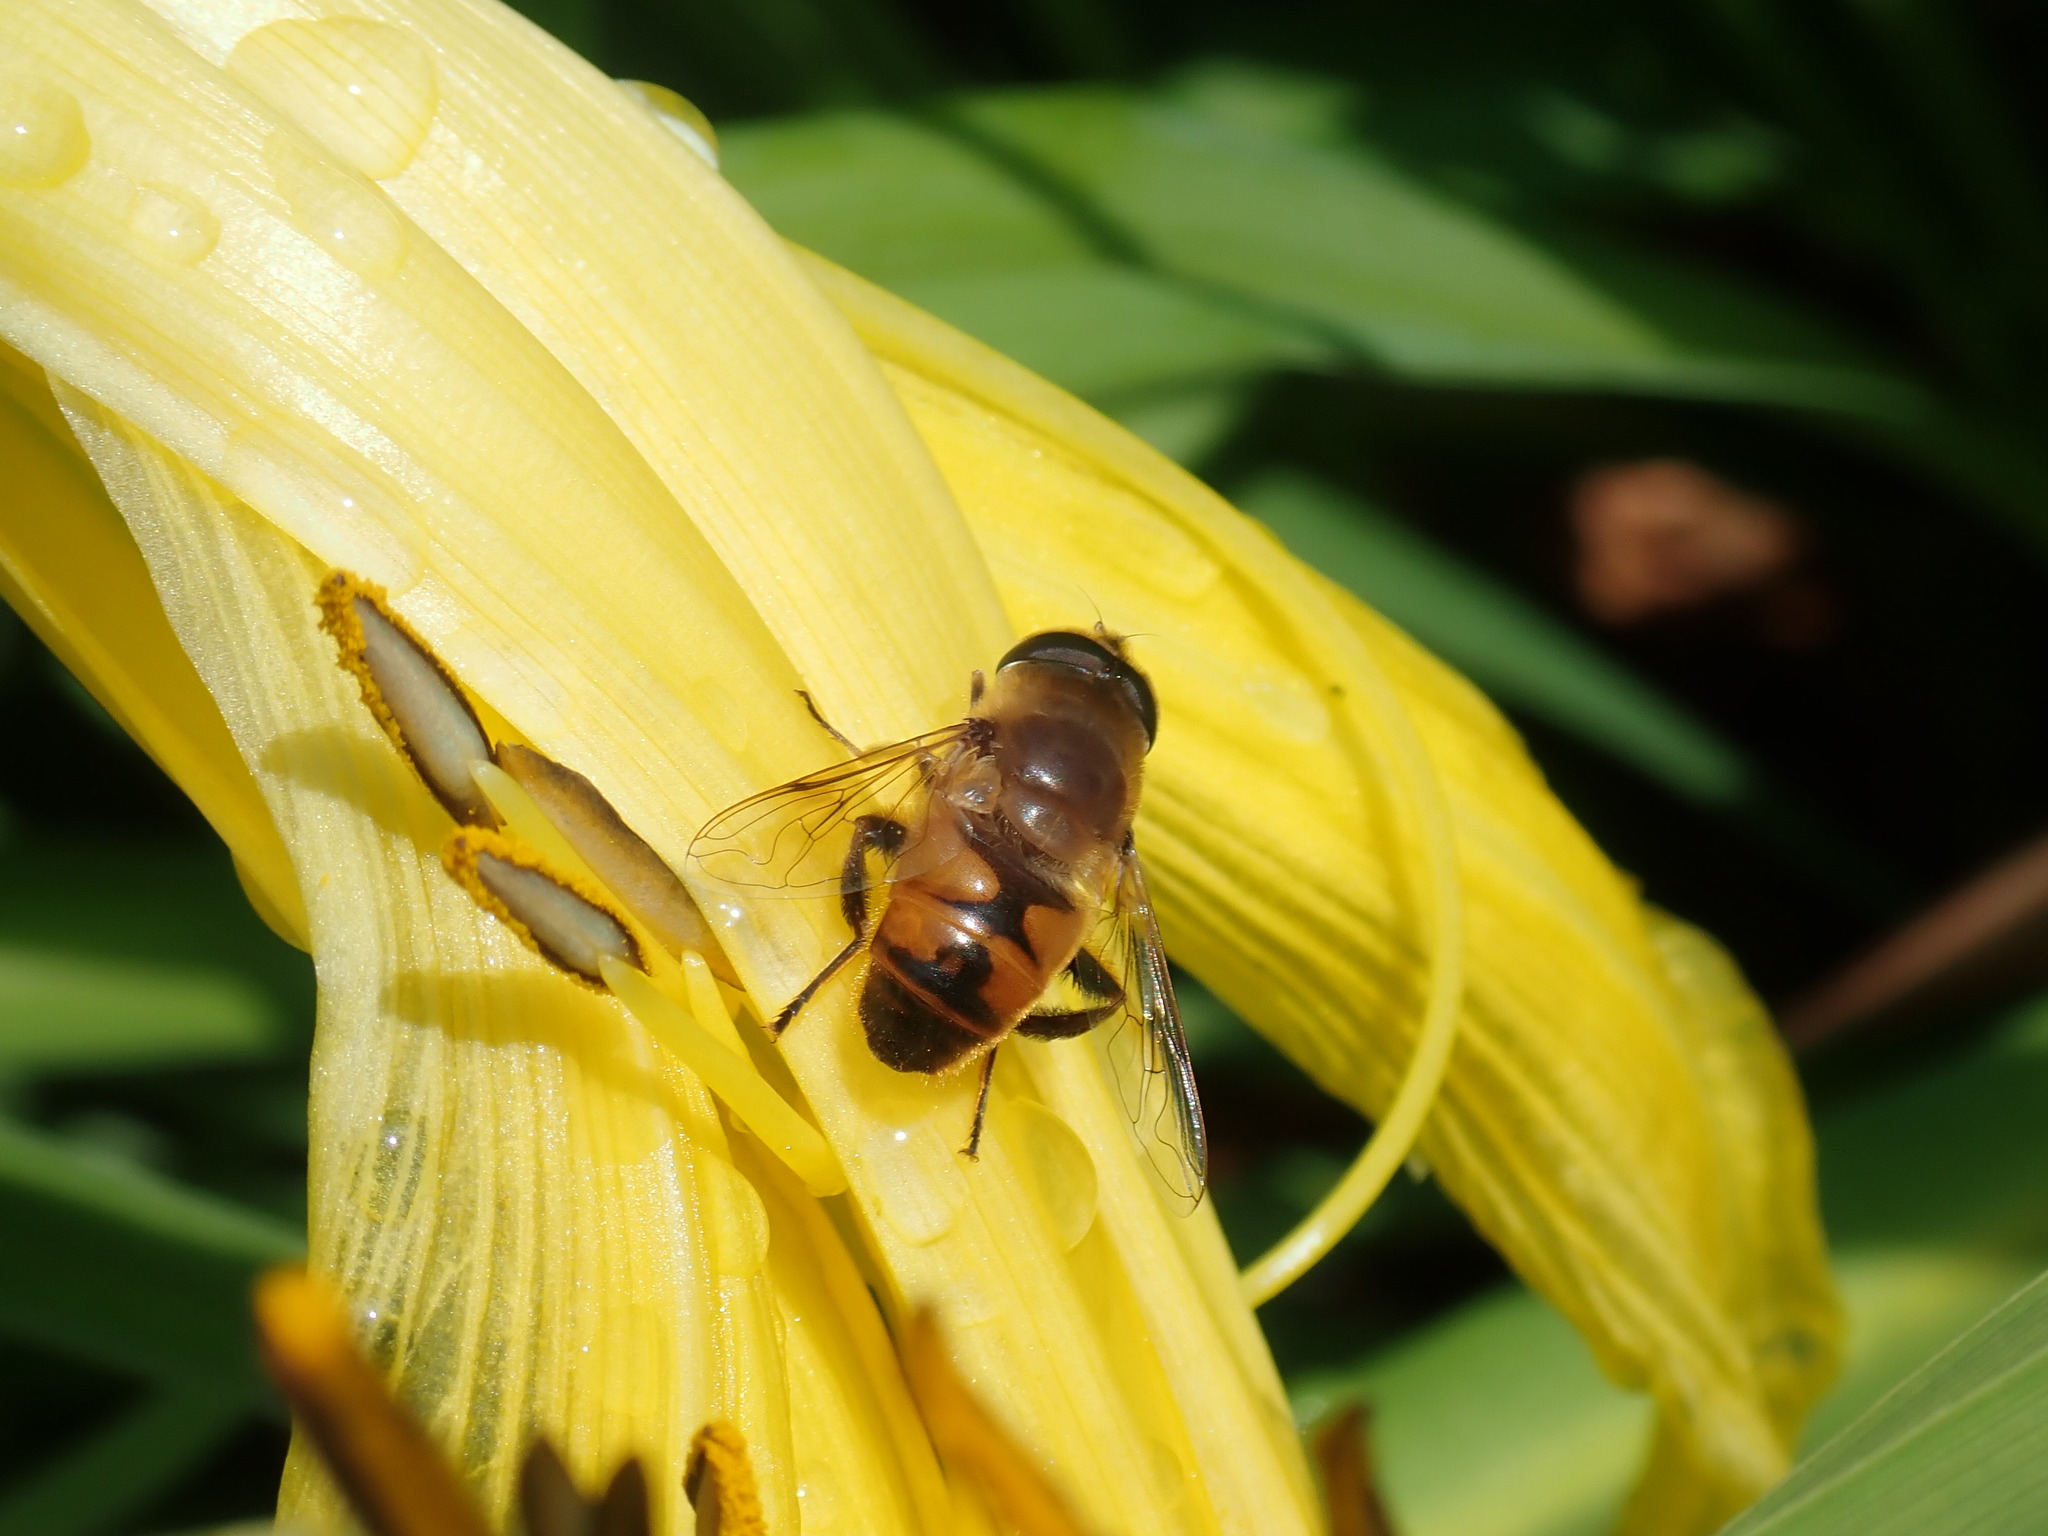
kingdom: Animalia
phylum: Arthropoda
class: Insecta
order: Diptera
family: Syrphidae
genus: Eristalis
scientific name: Eristalis tenax
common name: Drone fly
